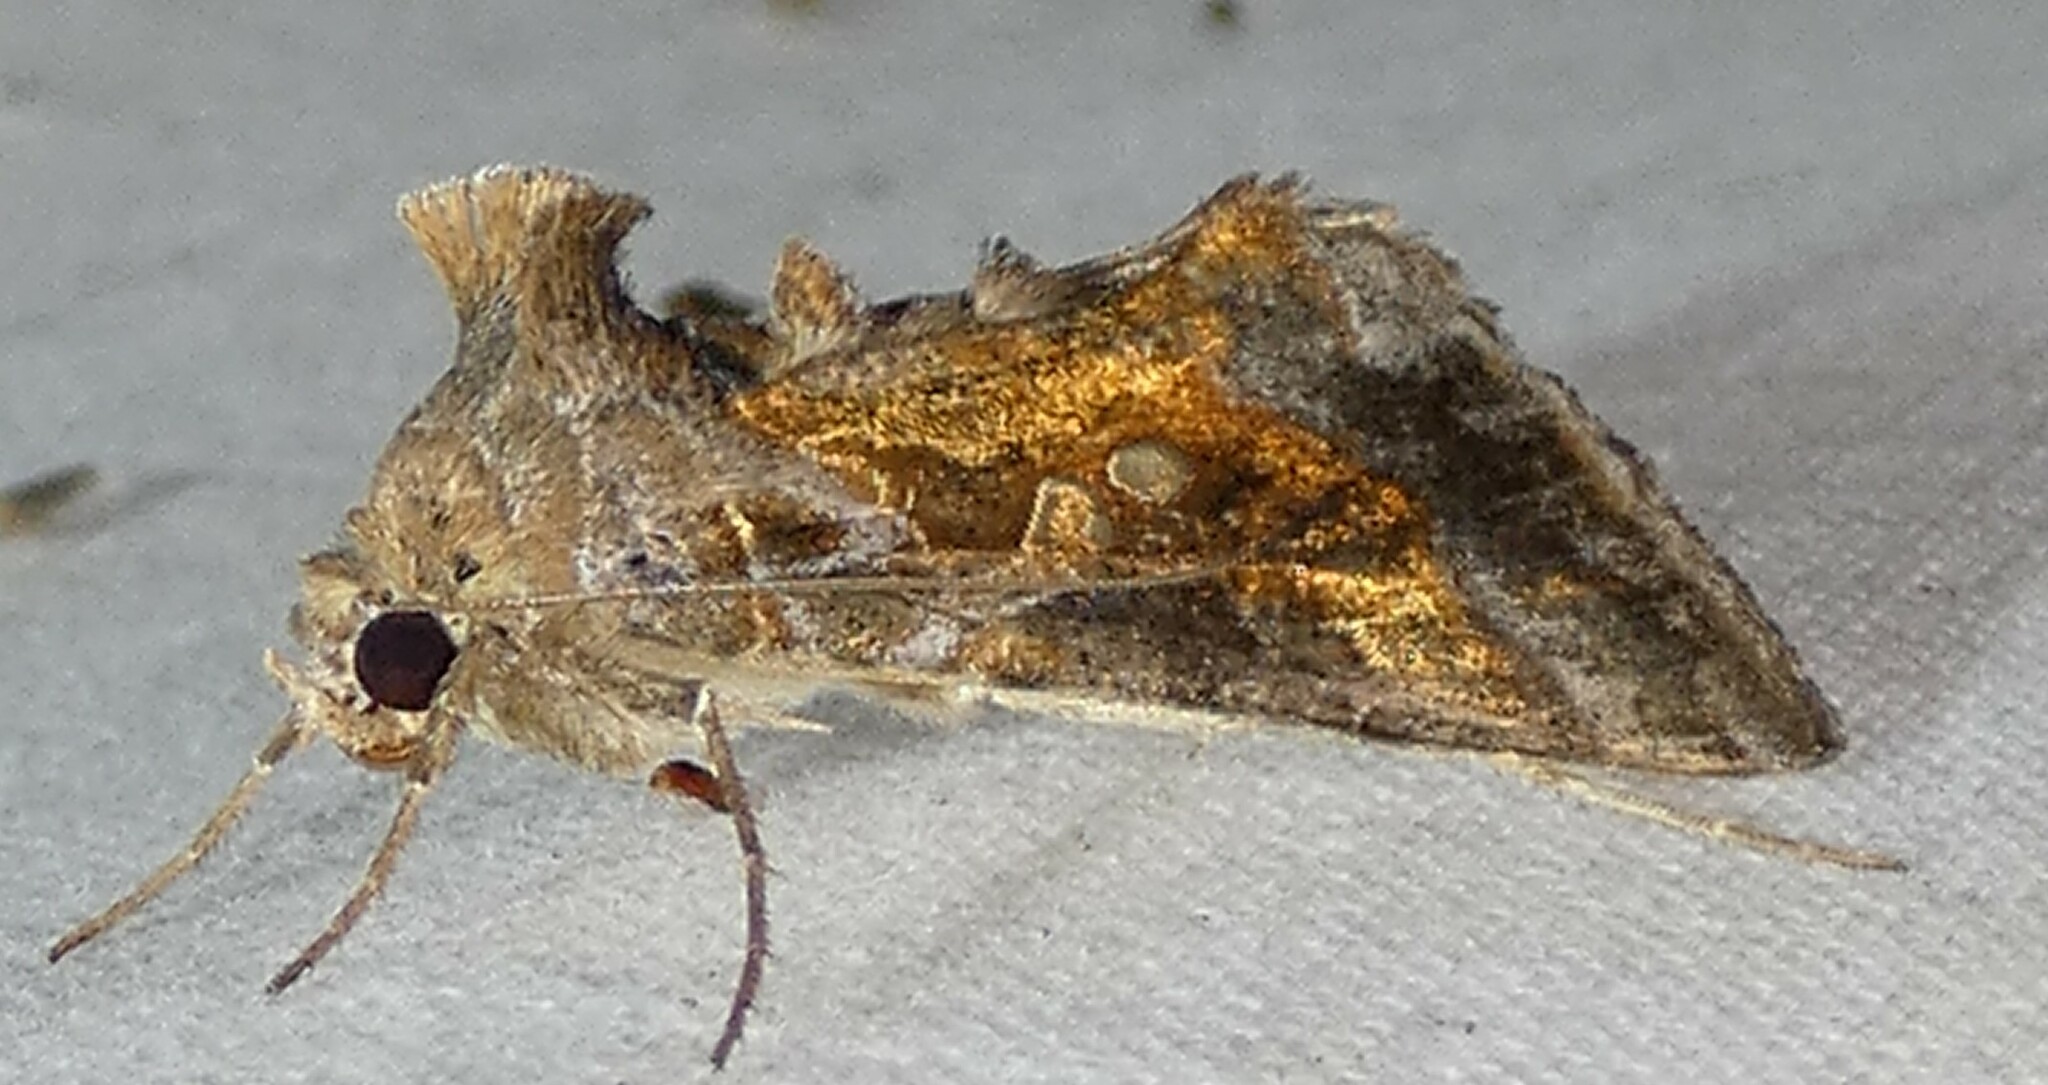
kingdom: Animalia
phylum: Arthropoda
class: Insecta
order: Lepidoptera
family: Noctuidae
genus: Chrysodeixis
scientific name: Chrysodeixis includens
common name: Cutworm moth
